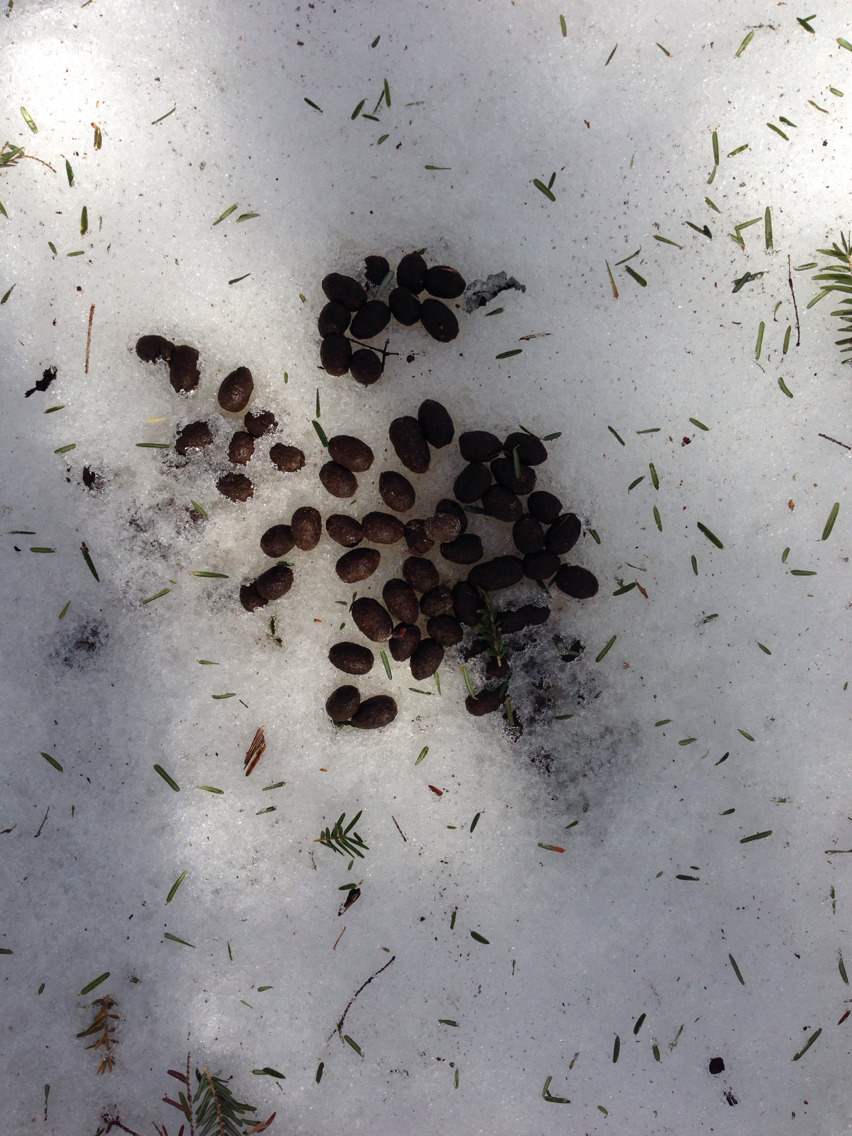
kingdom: Animalia
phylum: Chordata
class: Mammalia
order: Artiodactyla
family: Cervidae
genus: Odocoileus
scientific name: Odocoileus virginianus
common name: White-tailed deer
